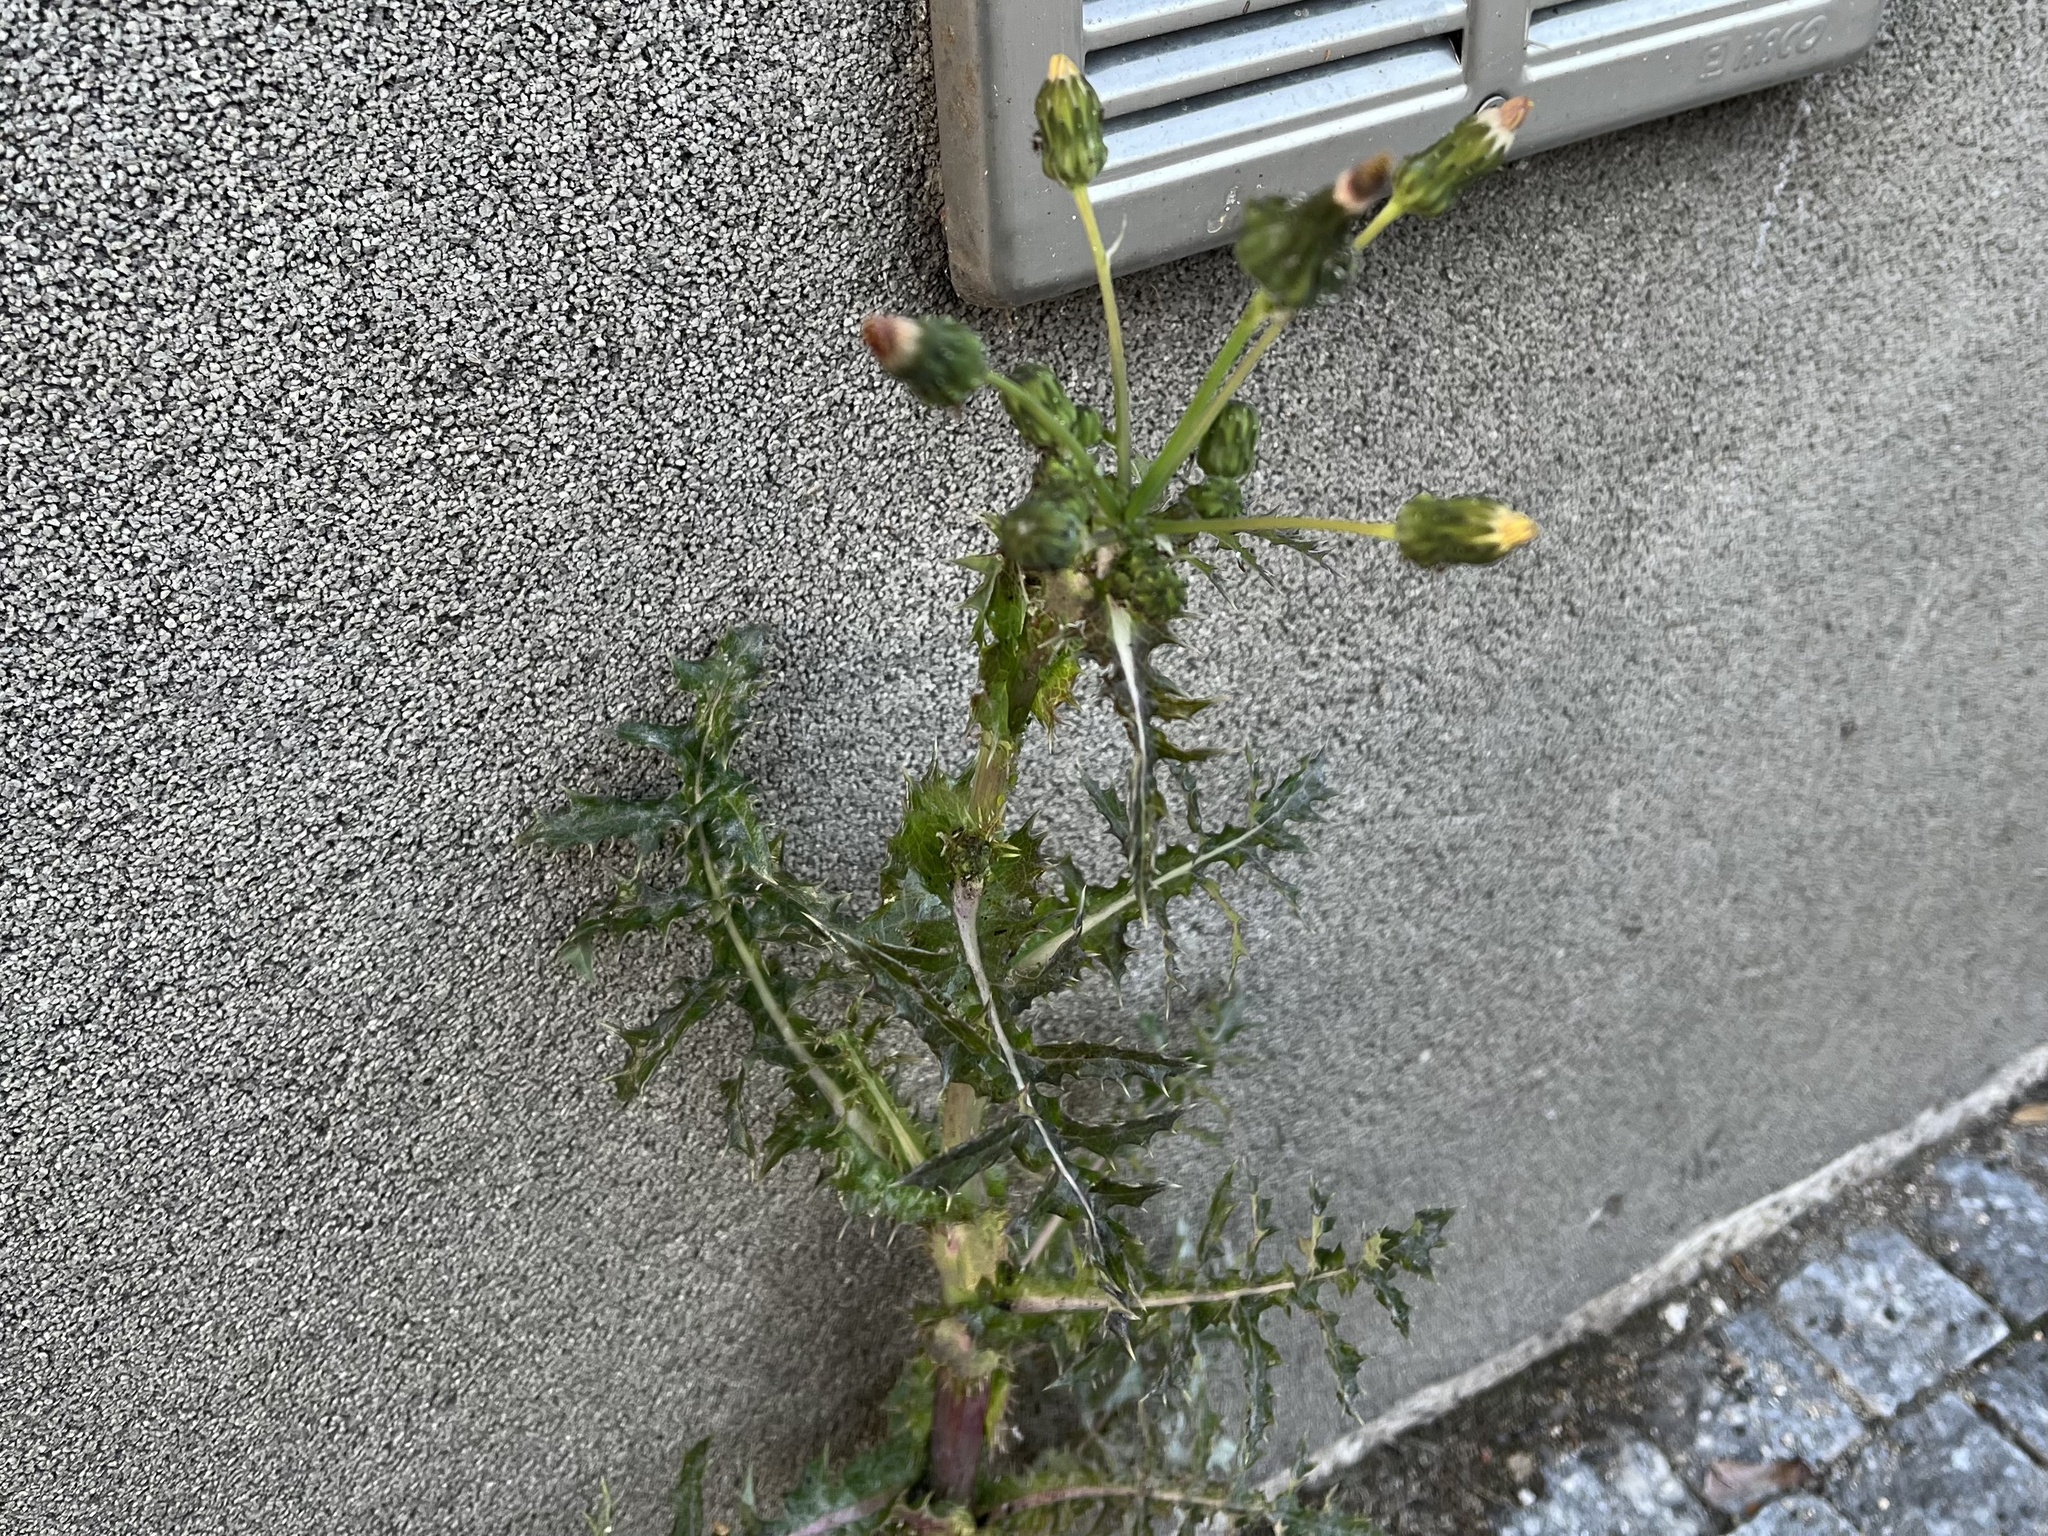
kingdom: Plantae
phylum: Tracheophyta
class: Magnoliopsida
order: Asterales
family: Asteraceae
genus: Sonchus
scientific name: Sonchus asper
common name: Prickly sow-thistle
